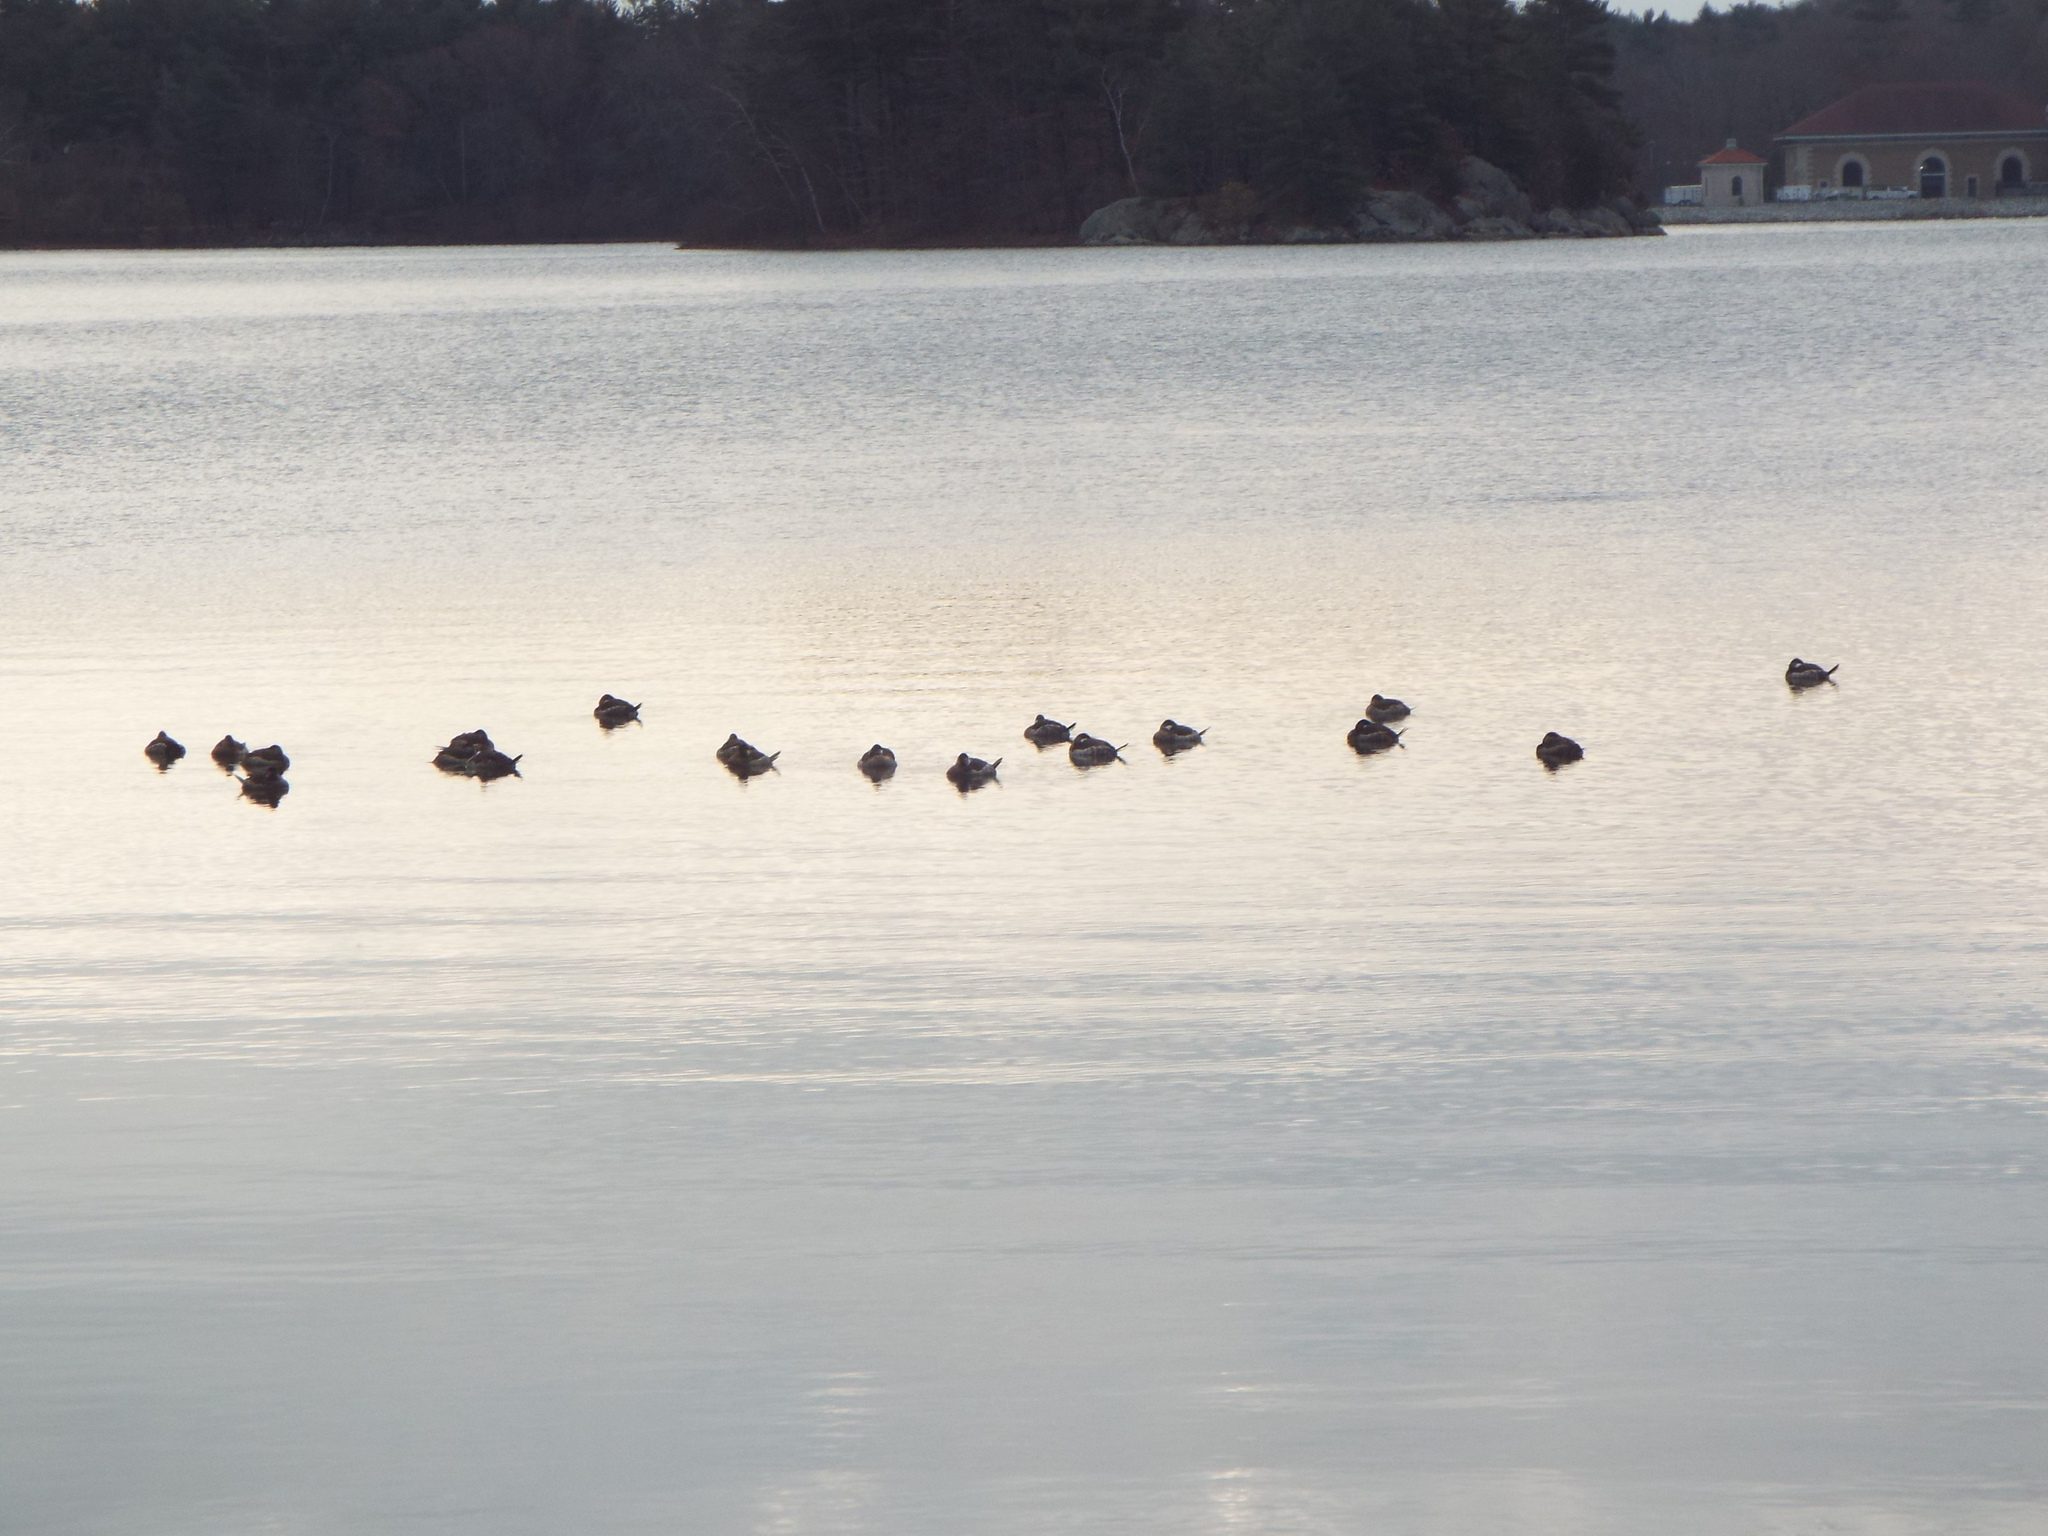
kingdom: Animalia
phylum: Chordata
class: Aves
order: Anseriformes
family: Anatidae
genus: Oxyura
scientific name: Oxyura jamaicensis
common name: Ruddy duck
